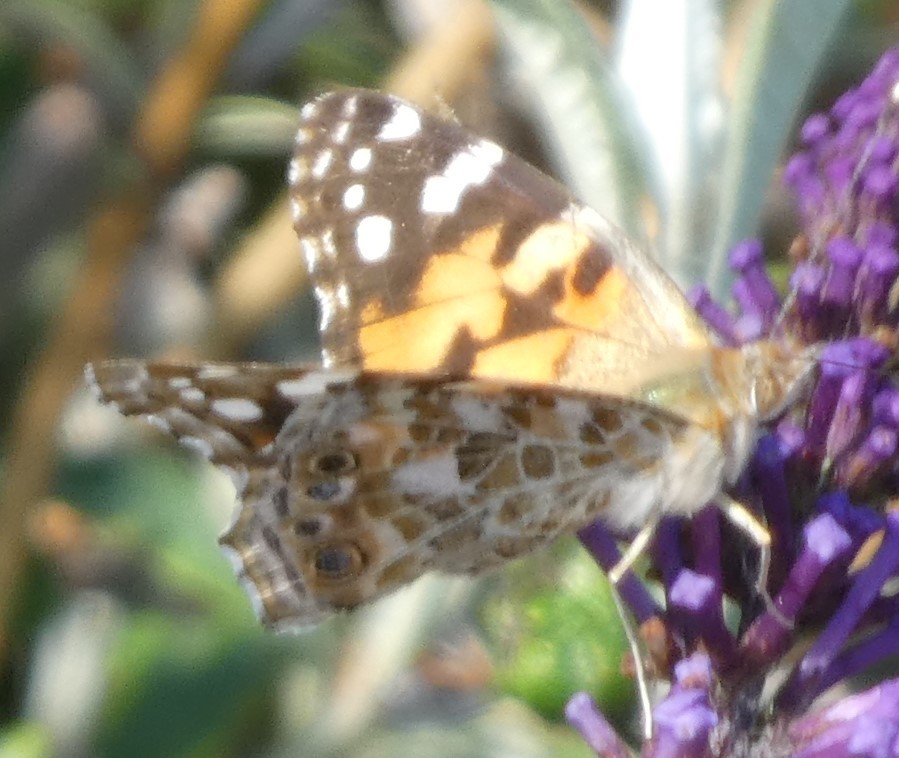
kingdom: Animalia
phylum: Arthropoda
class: Insecta
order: Lepidoptera
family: Nymphalidae
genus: Vanessa
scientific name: Vanessa cardui
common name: Painted lady
